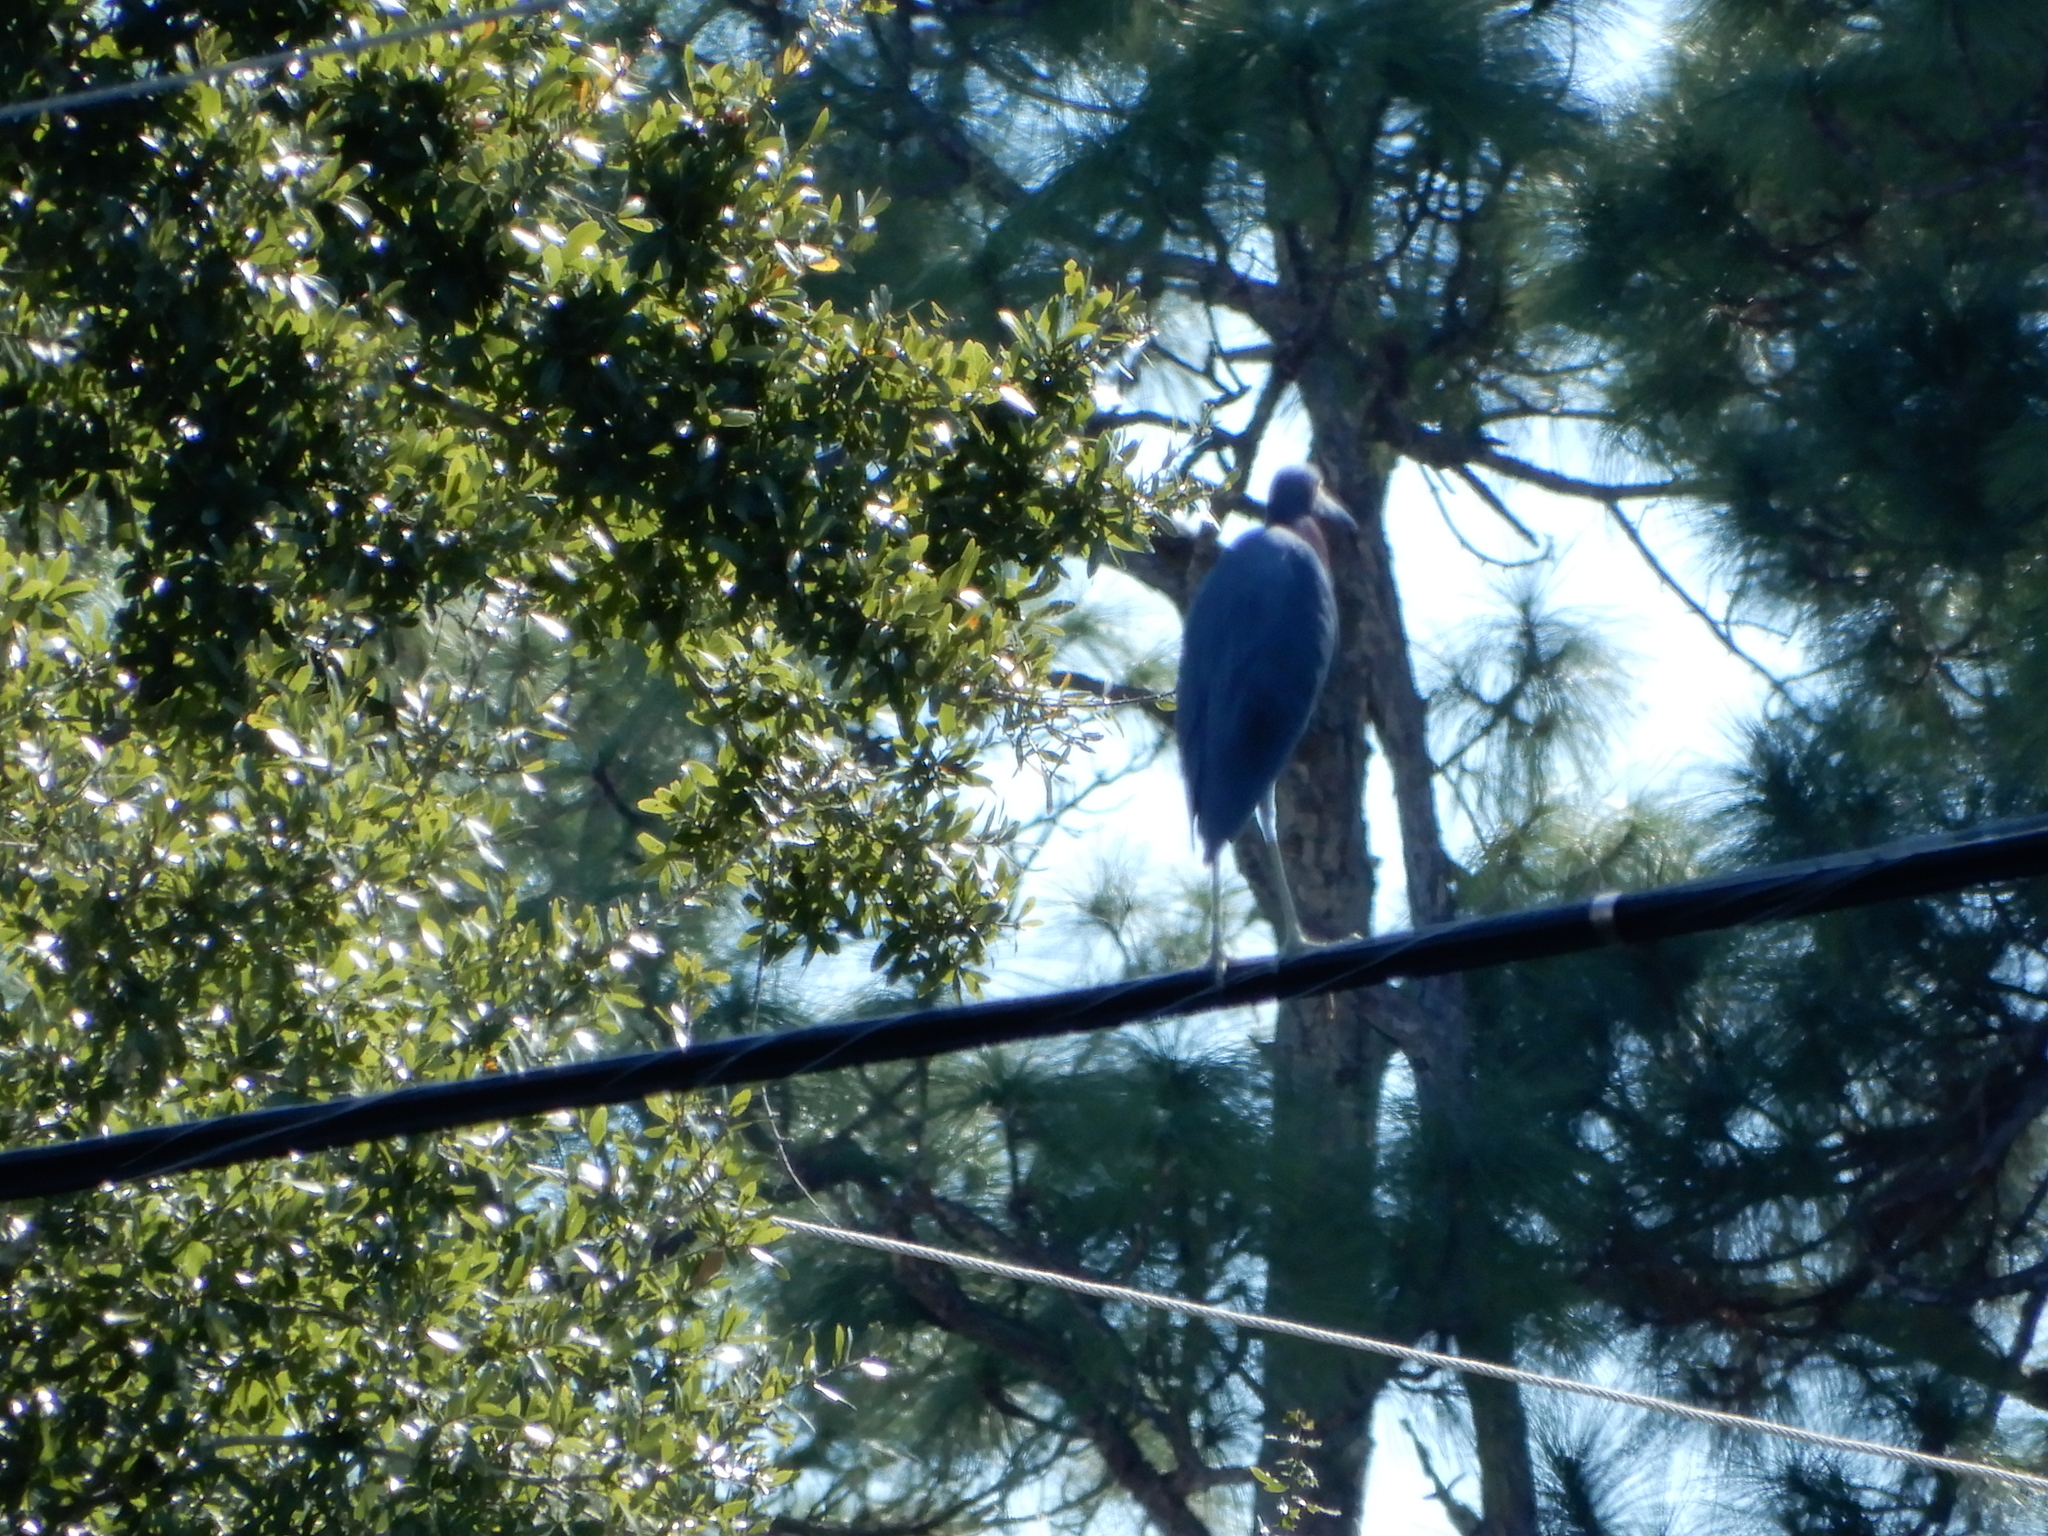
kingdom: Animalia
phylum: Chordata
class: Aves
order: Pelecaniformes
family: Ardeidae
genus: Egretta
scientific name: Egretta caerulea
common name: Little blue heron
